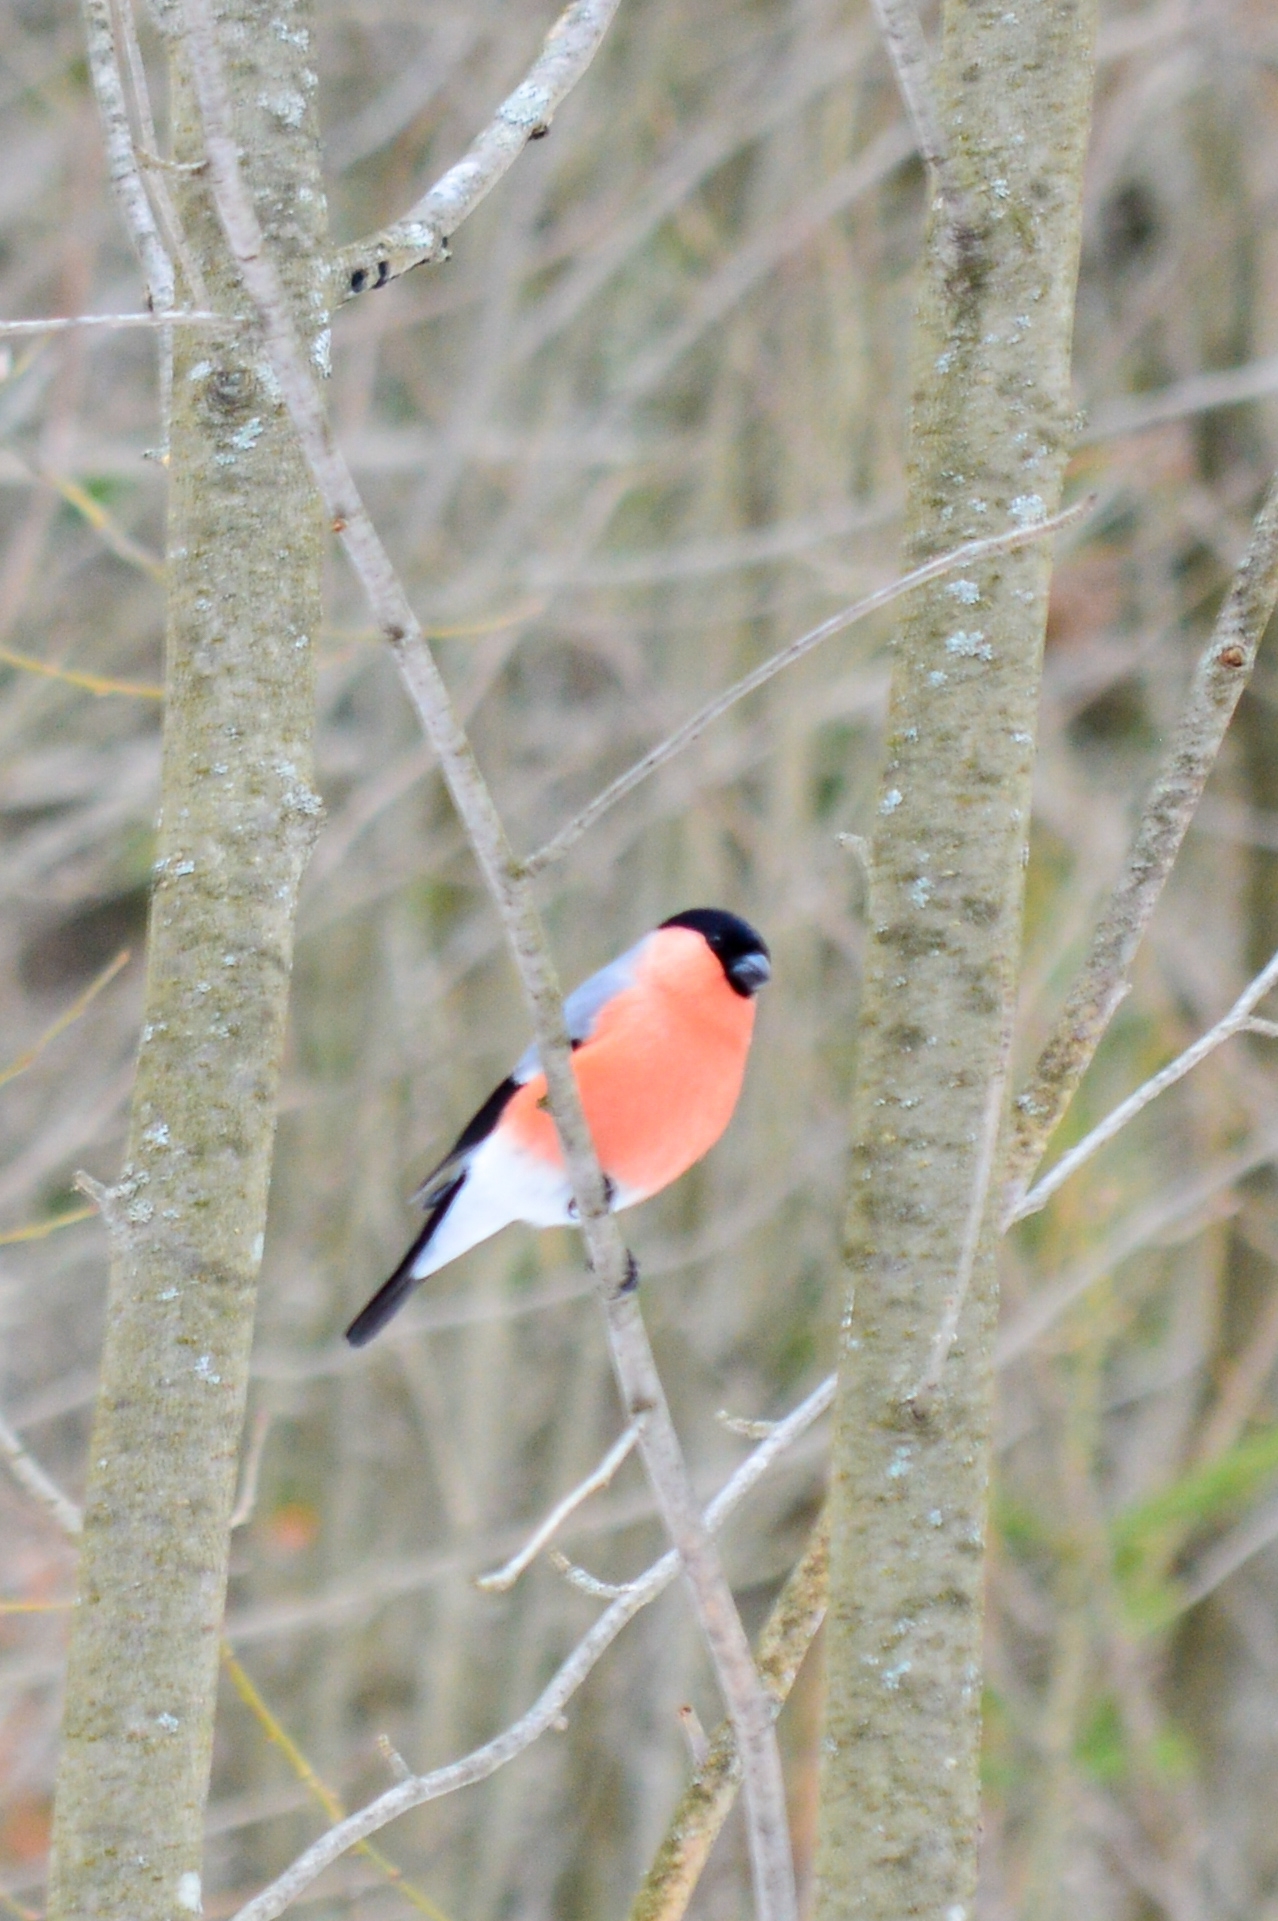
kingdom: Animalia
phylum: Chordata
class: Aves
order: Passeriformes
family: Fringillidae
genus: Pyrrhula
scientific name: Pyrrhula pyrrhula
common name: Eurasian bullfinch
